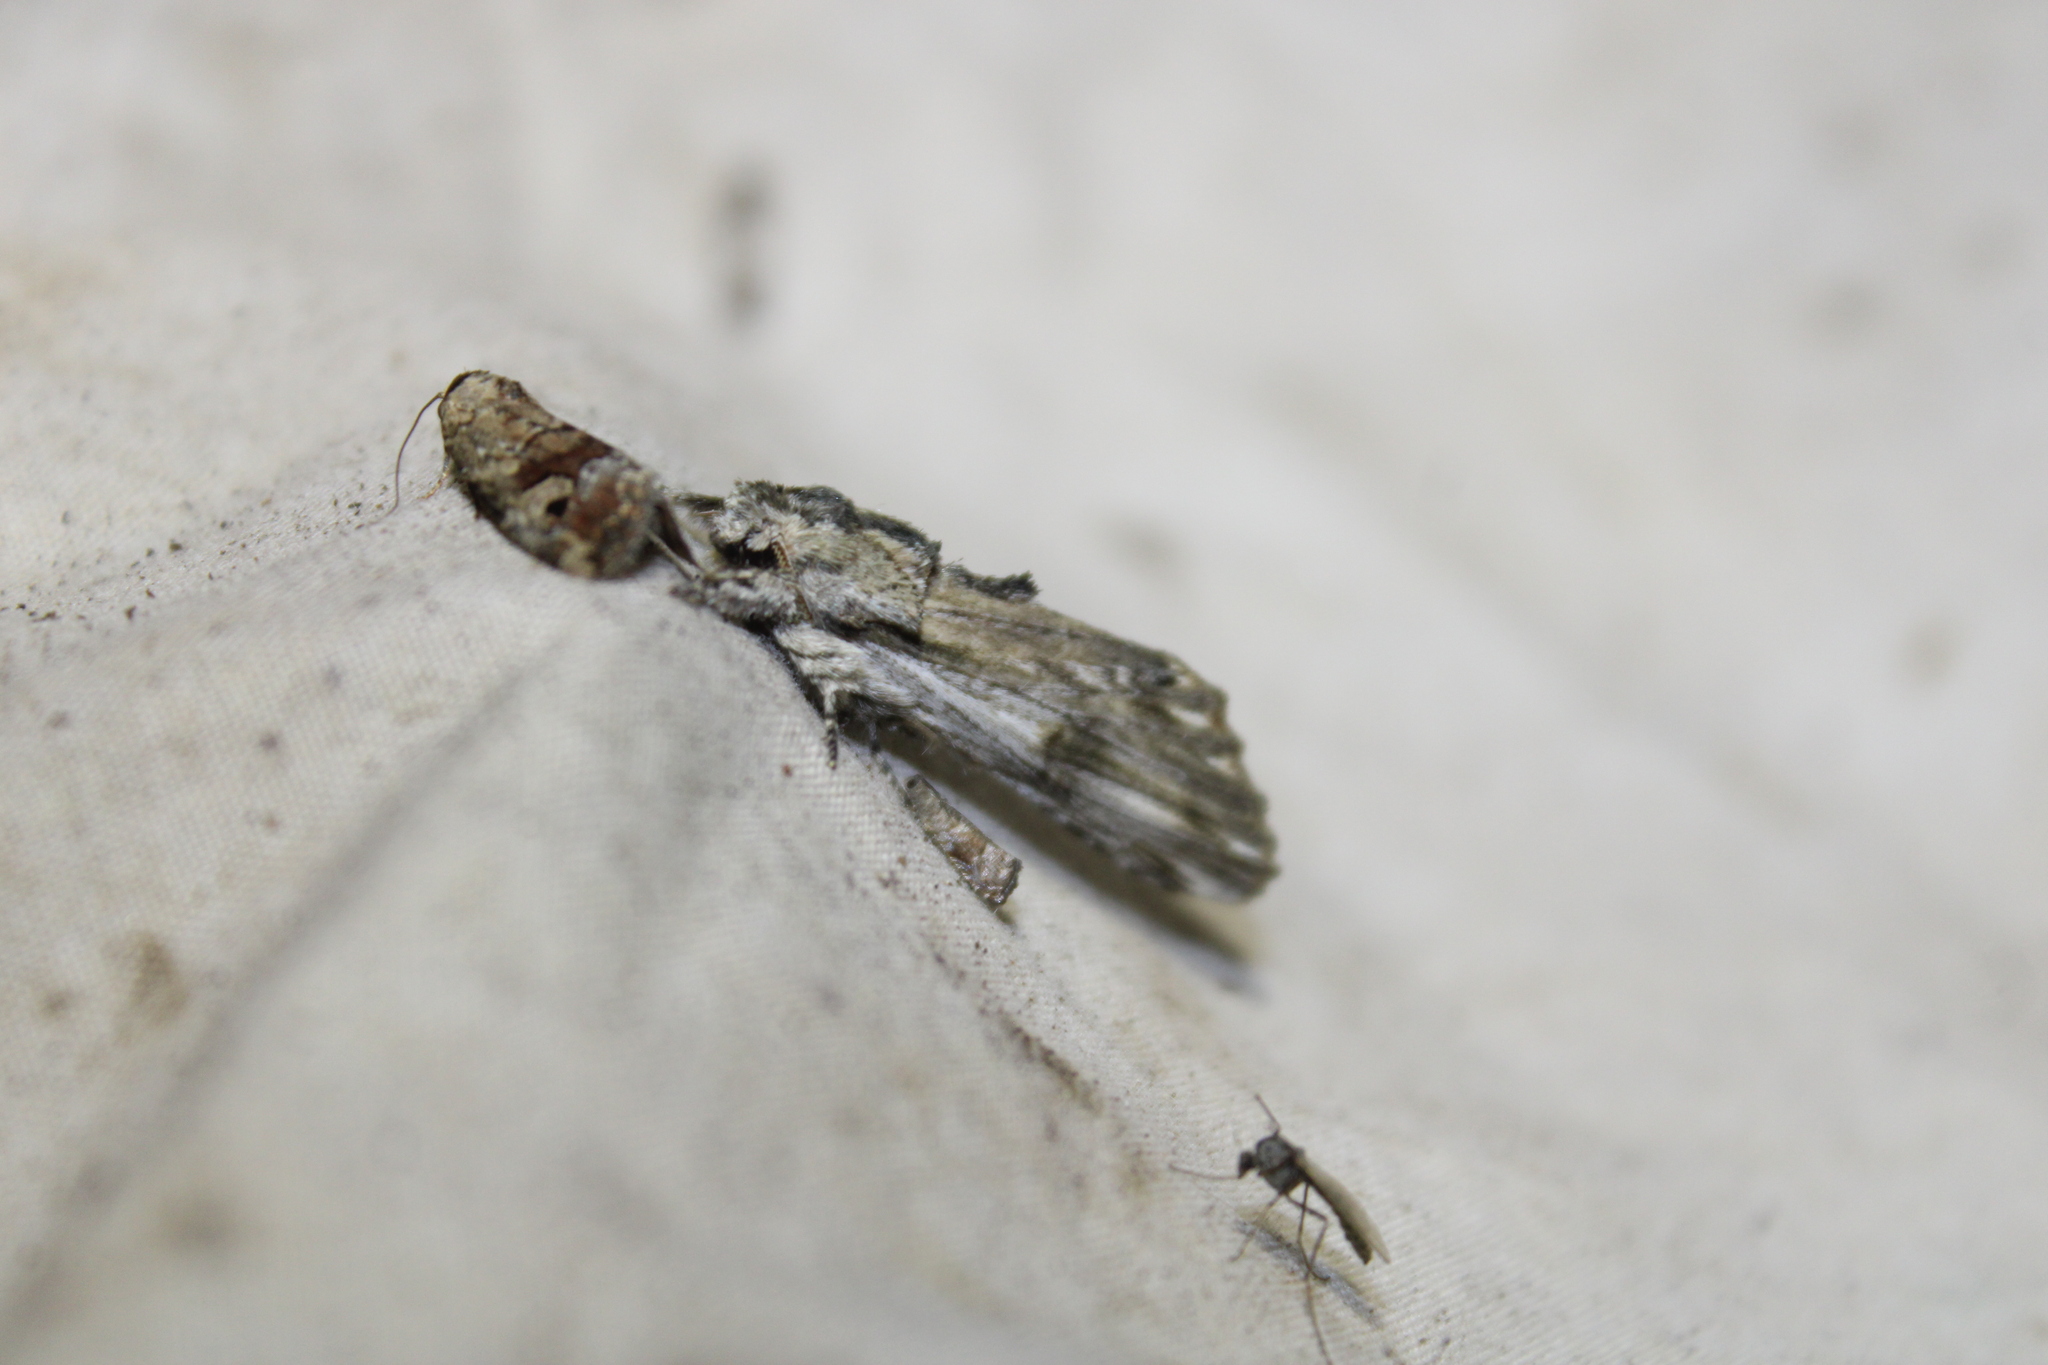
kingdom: Animalia
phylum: Arthropoda
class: Insecta
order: Lepidoptera
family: Notodontidae
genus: Oligocentria
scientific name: Oligocentria Ianassa lignicolor
